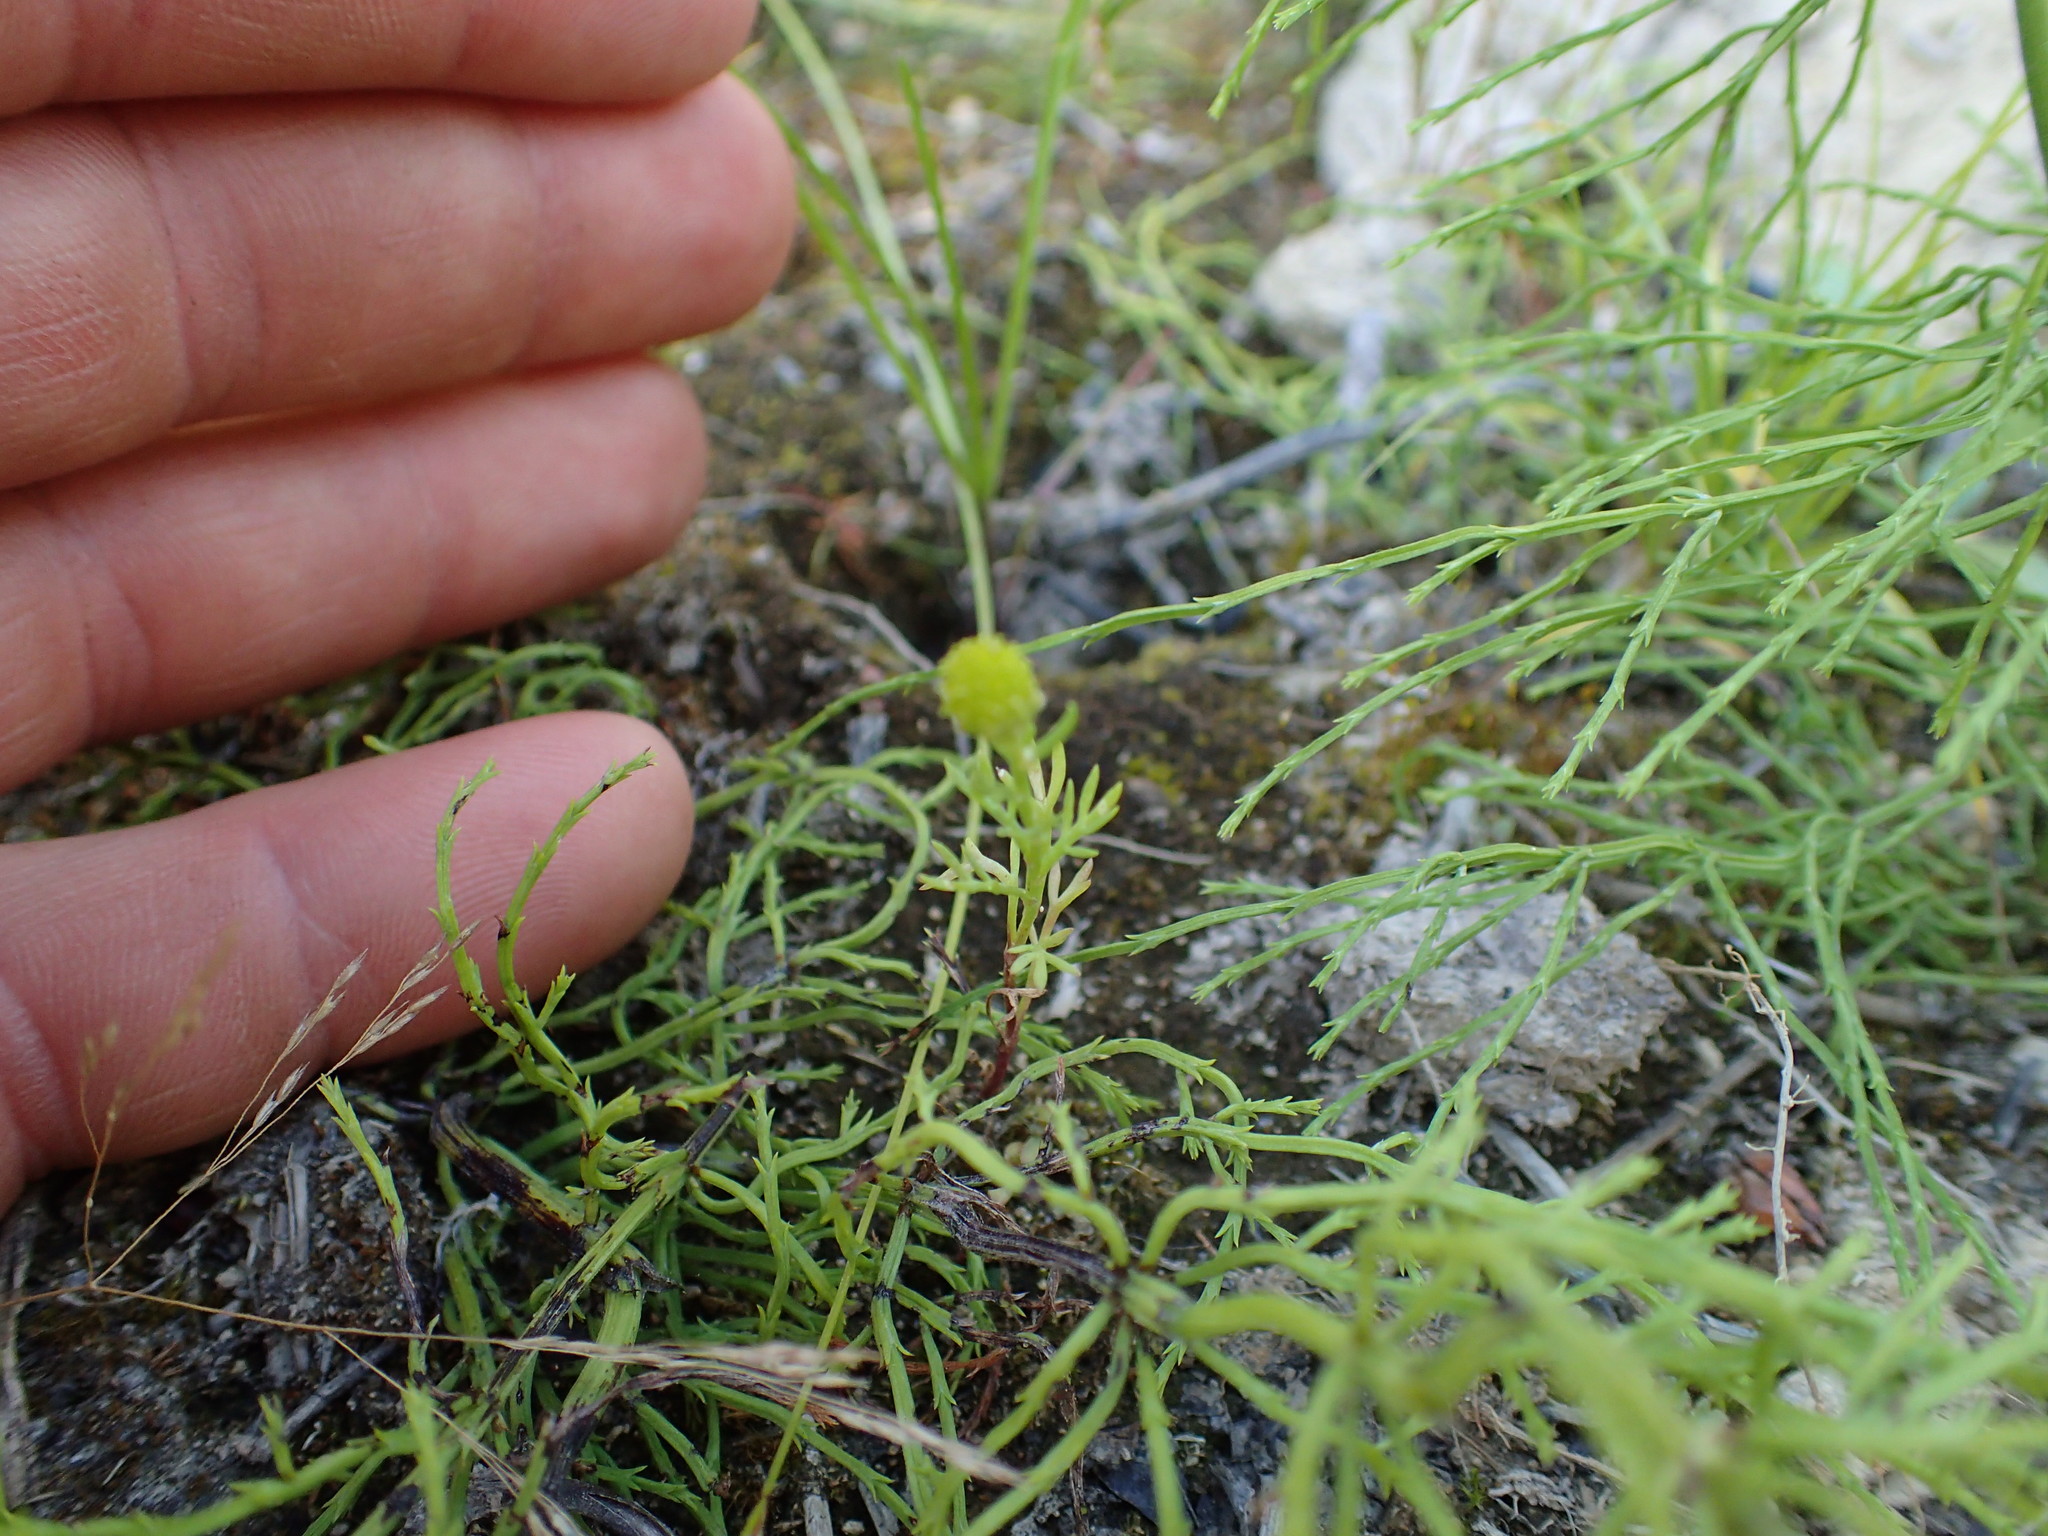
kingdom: Plantae
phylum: Tracheophyta
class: Magnoliopsida
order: Asterales
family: Asteraceae
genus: Matricaria
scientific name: Matricaria discoidea
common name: Disc mayweed
